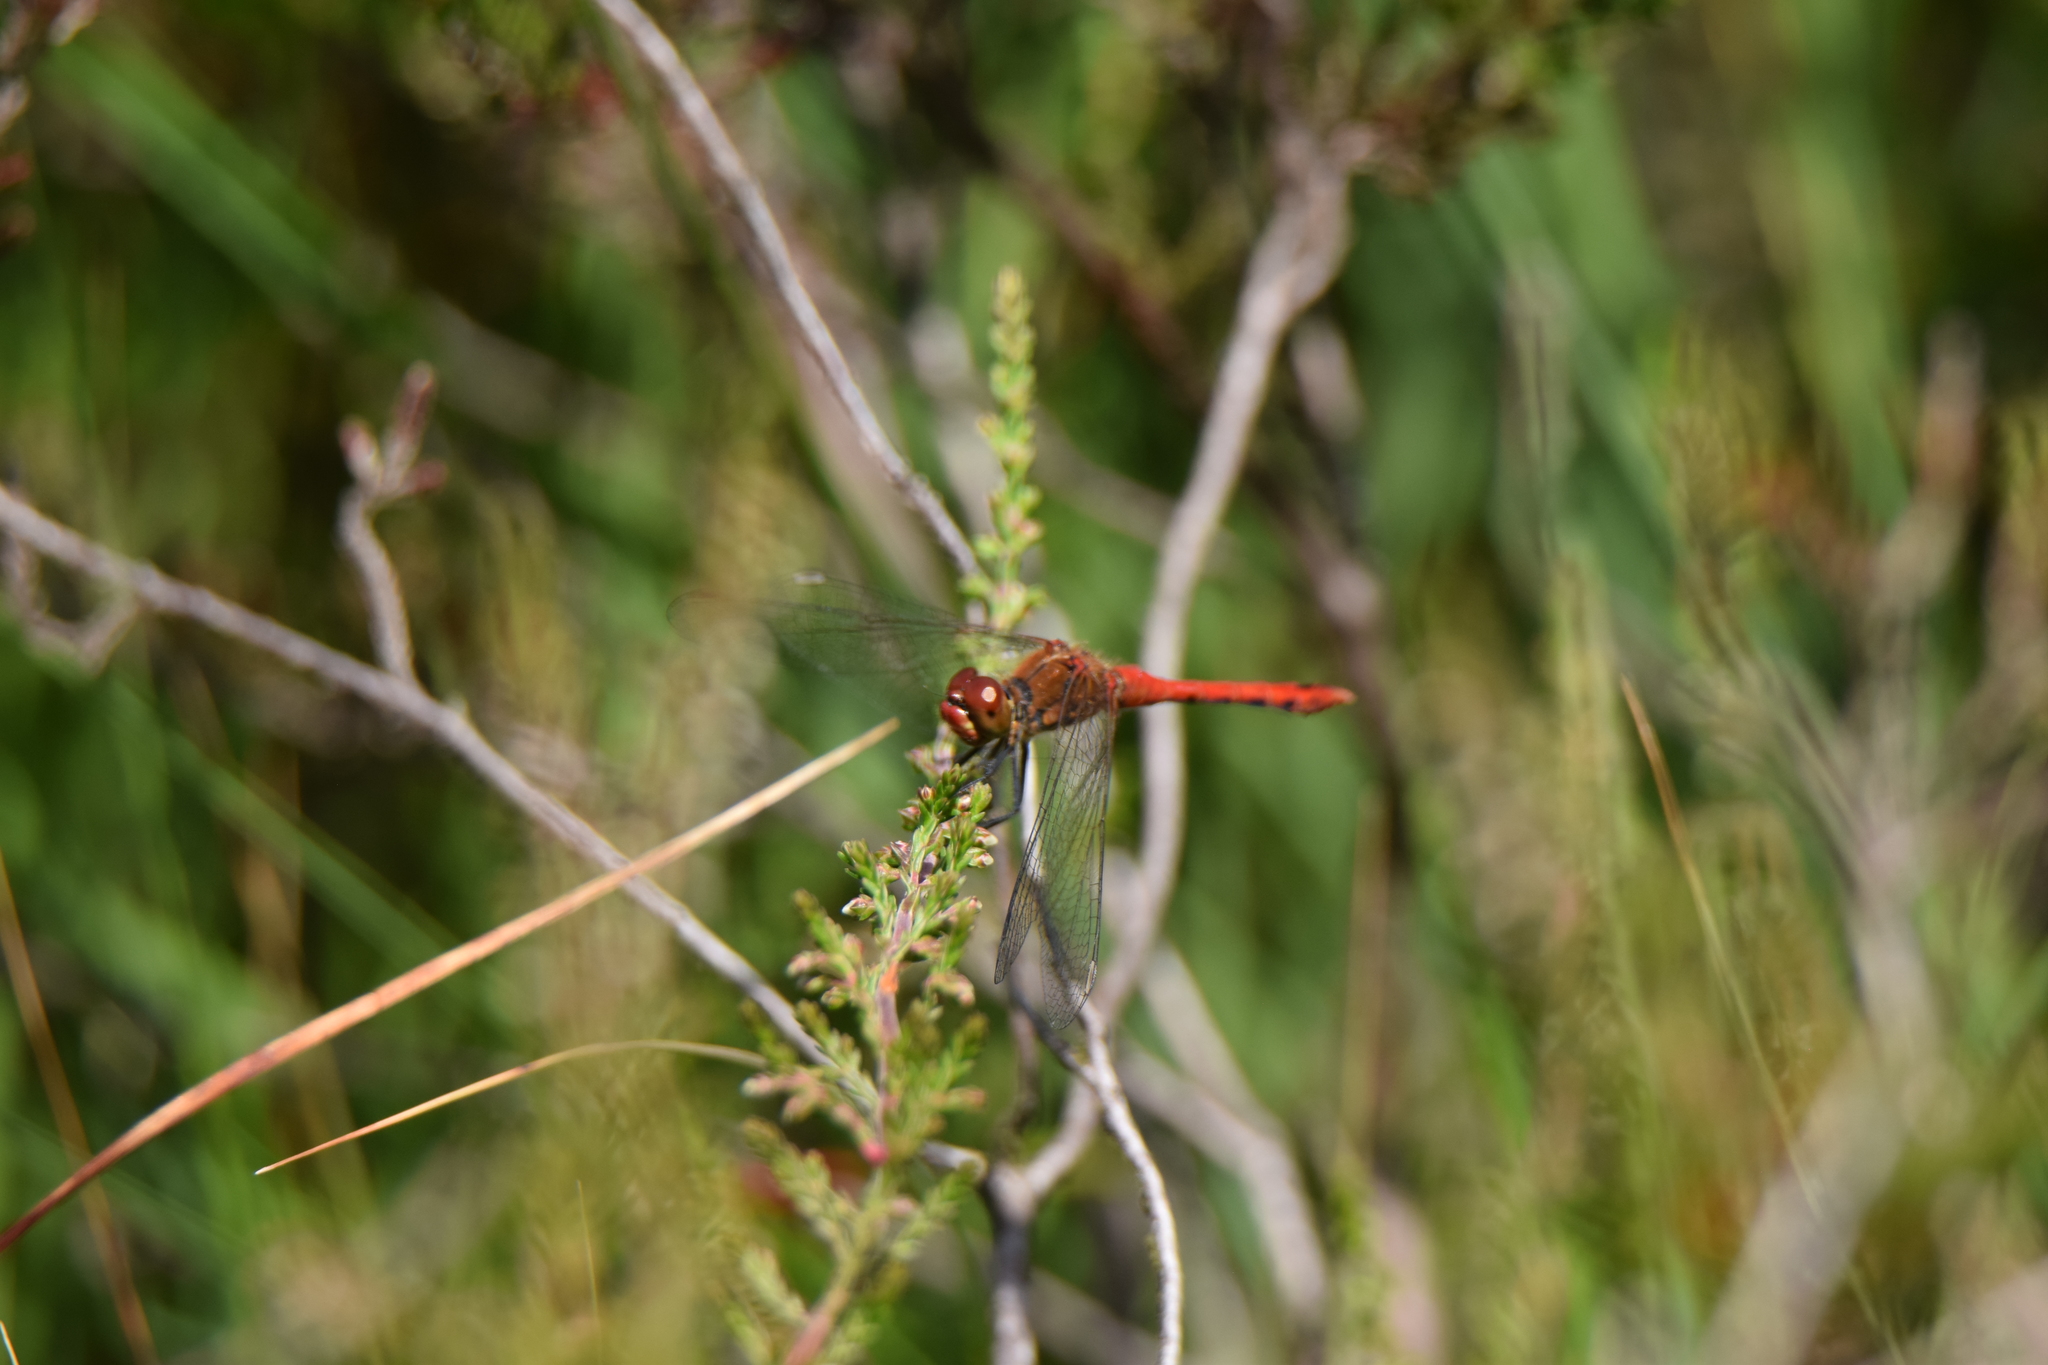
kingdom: Animalia
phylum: Arthropoda
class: Insecta
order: Odonata
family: Libellulidae
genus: Sympetrum
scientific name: Sympetrum sanguineum
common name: Ruddy darter
